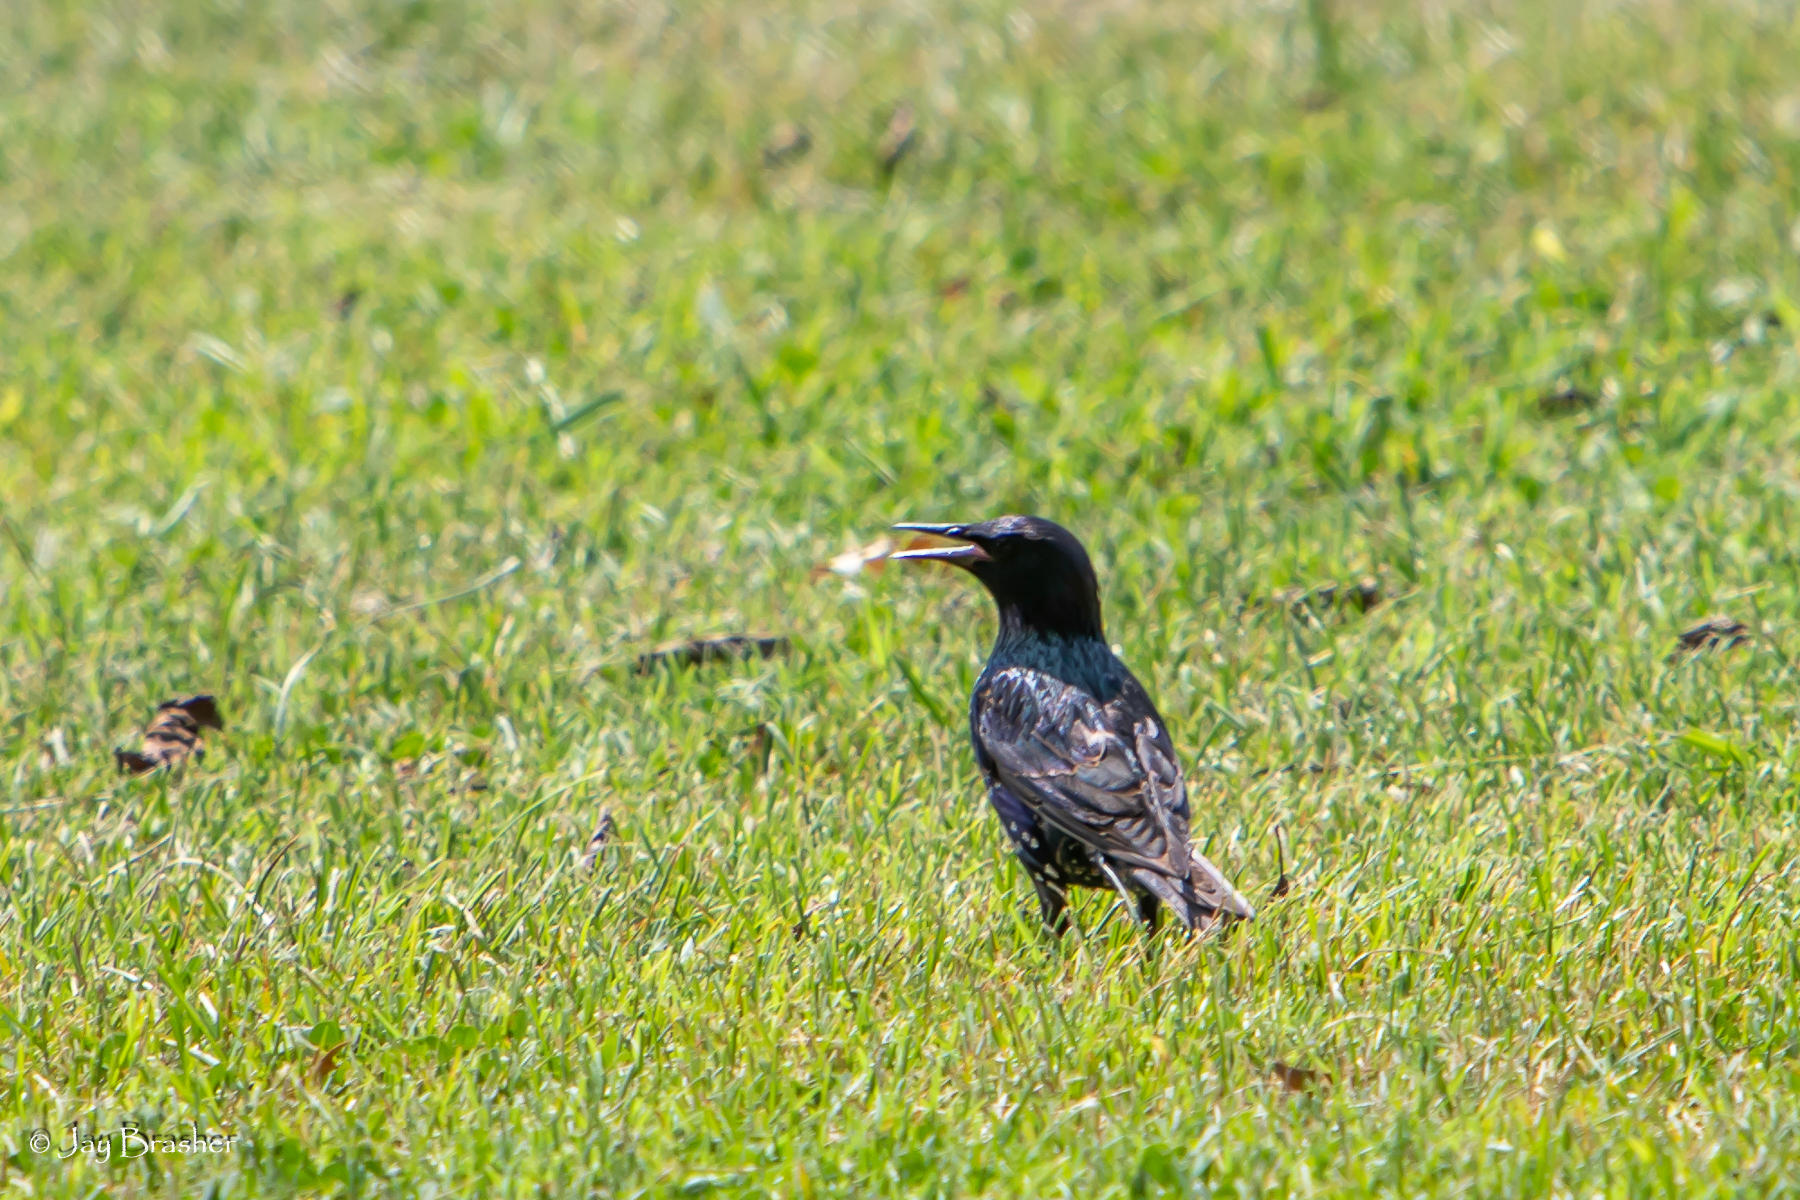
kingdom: Animalia
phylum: Chordata
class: Aves
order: Passeriformes
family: Sturnidae
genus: Sturnus
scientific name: Sturnus vulgaris
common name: Common starling
